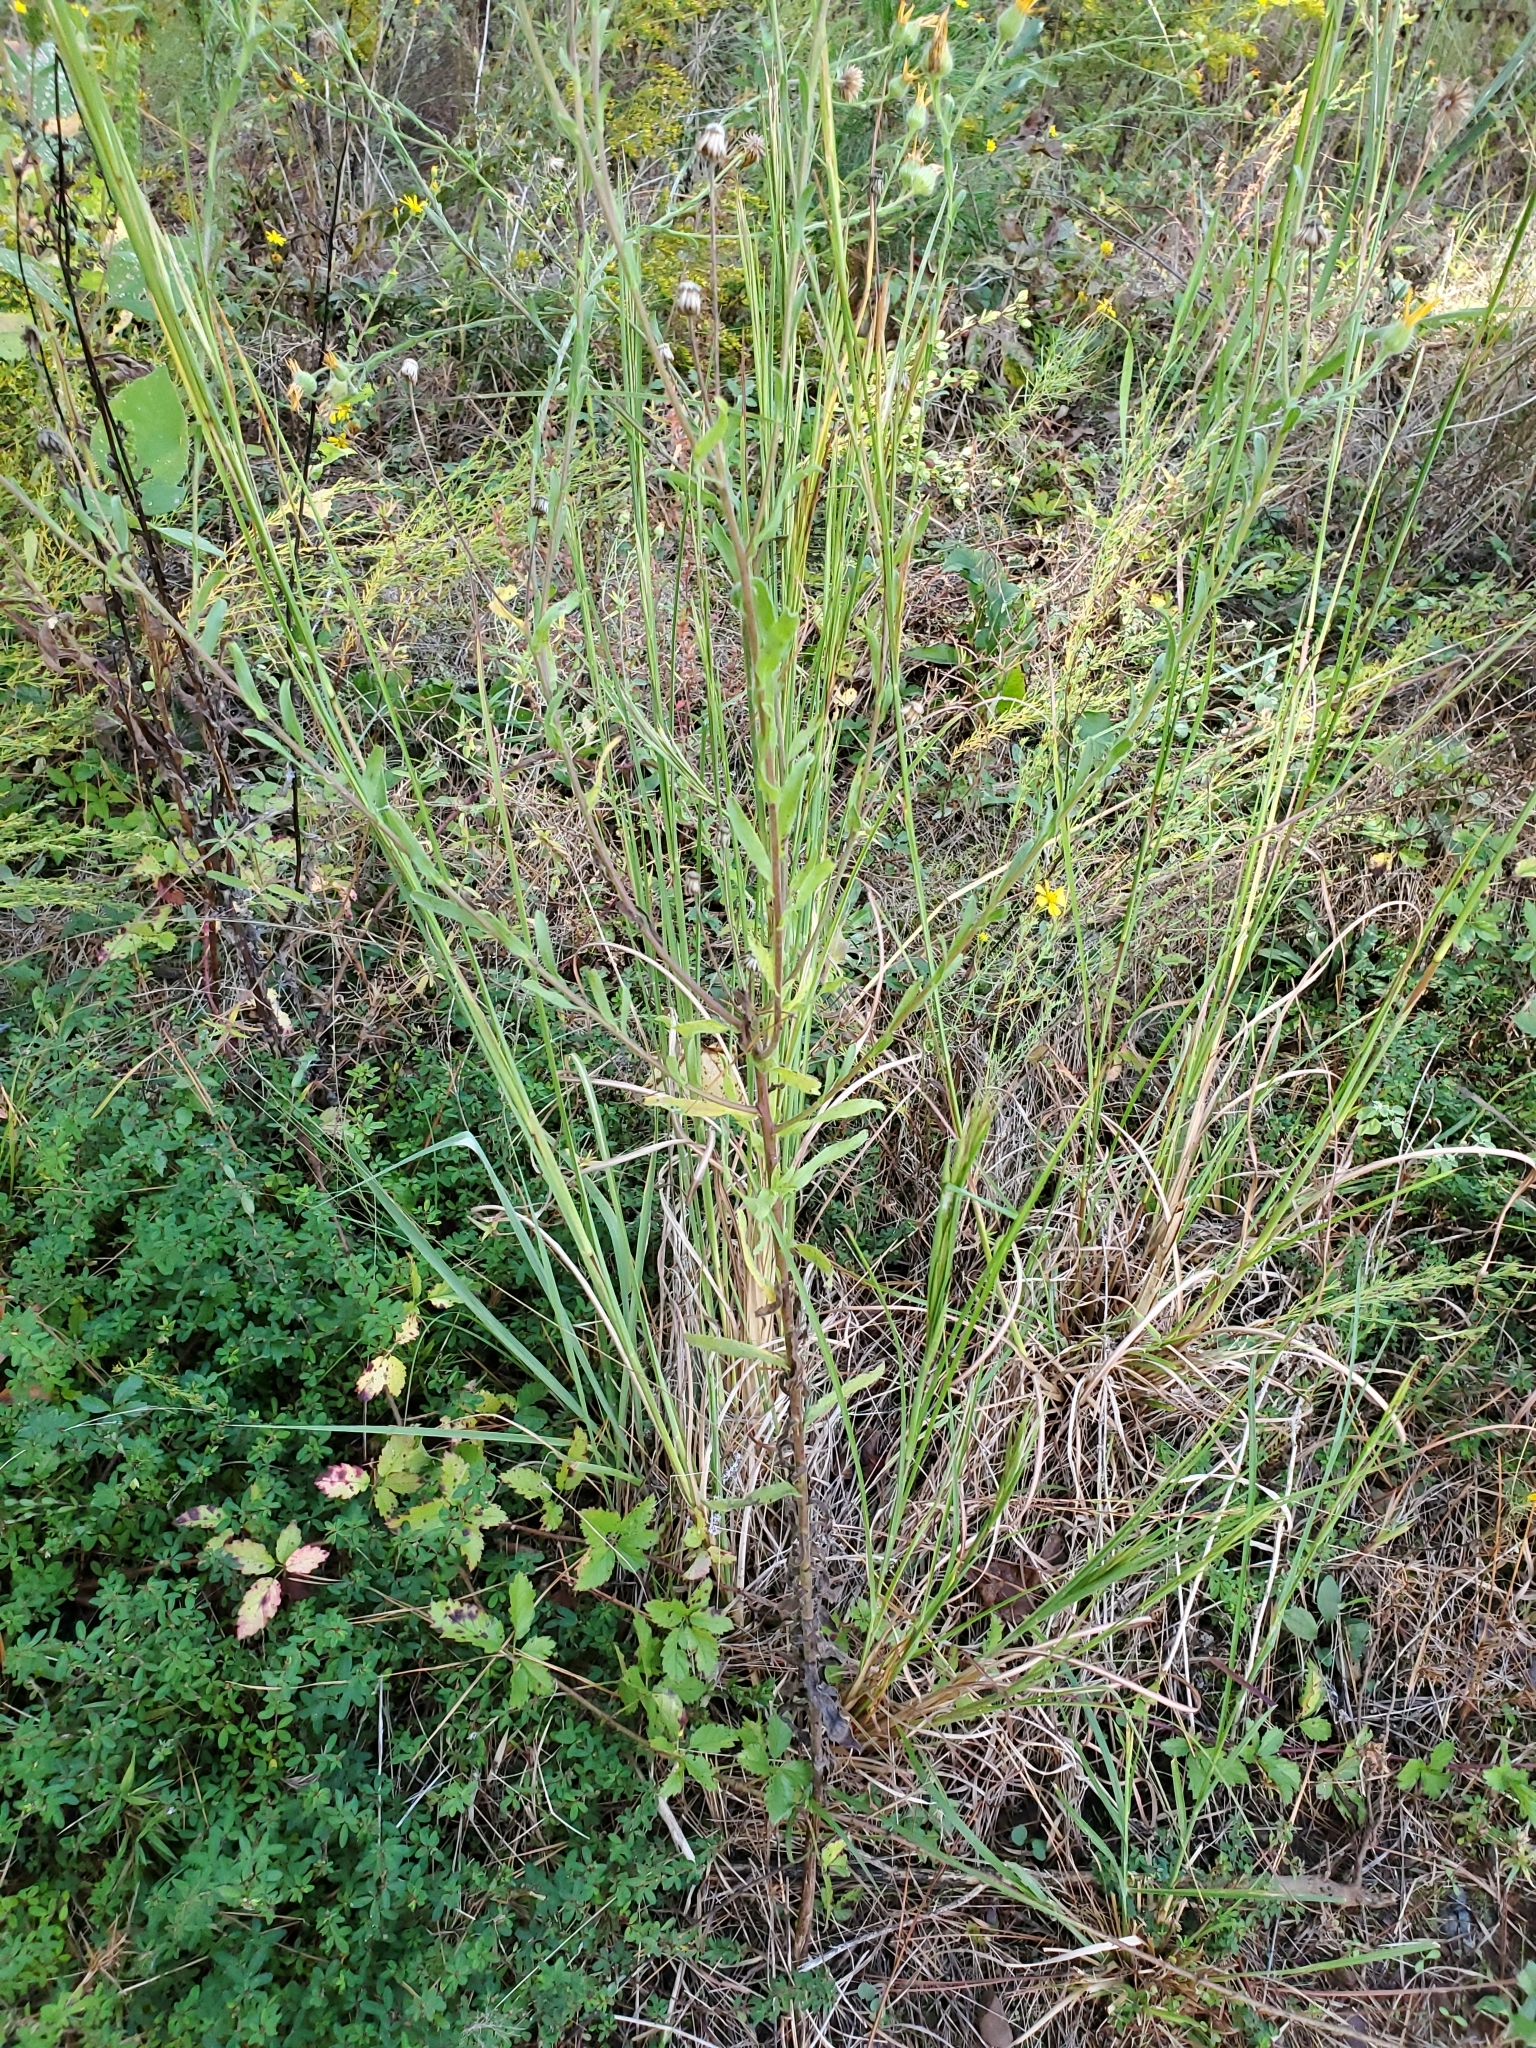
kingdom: Plantae
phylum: Tracheophyta
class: Magnoliopsida
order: Asterales
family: Asteraceae
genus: Bradburia
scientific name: Bradburia pilosa
